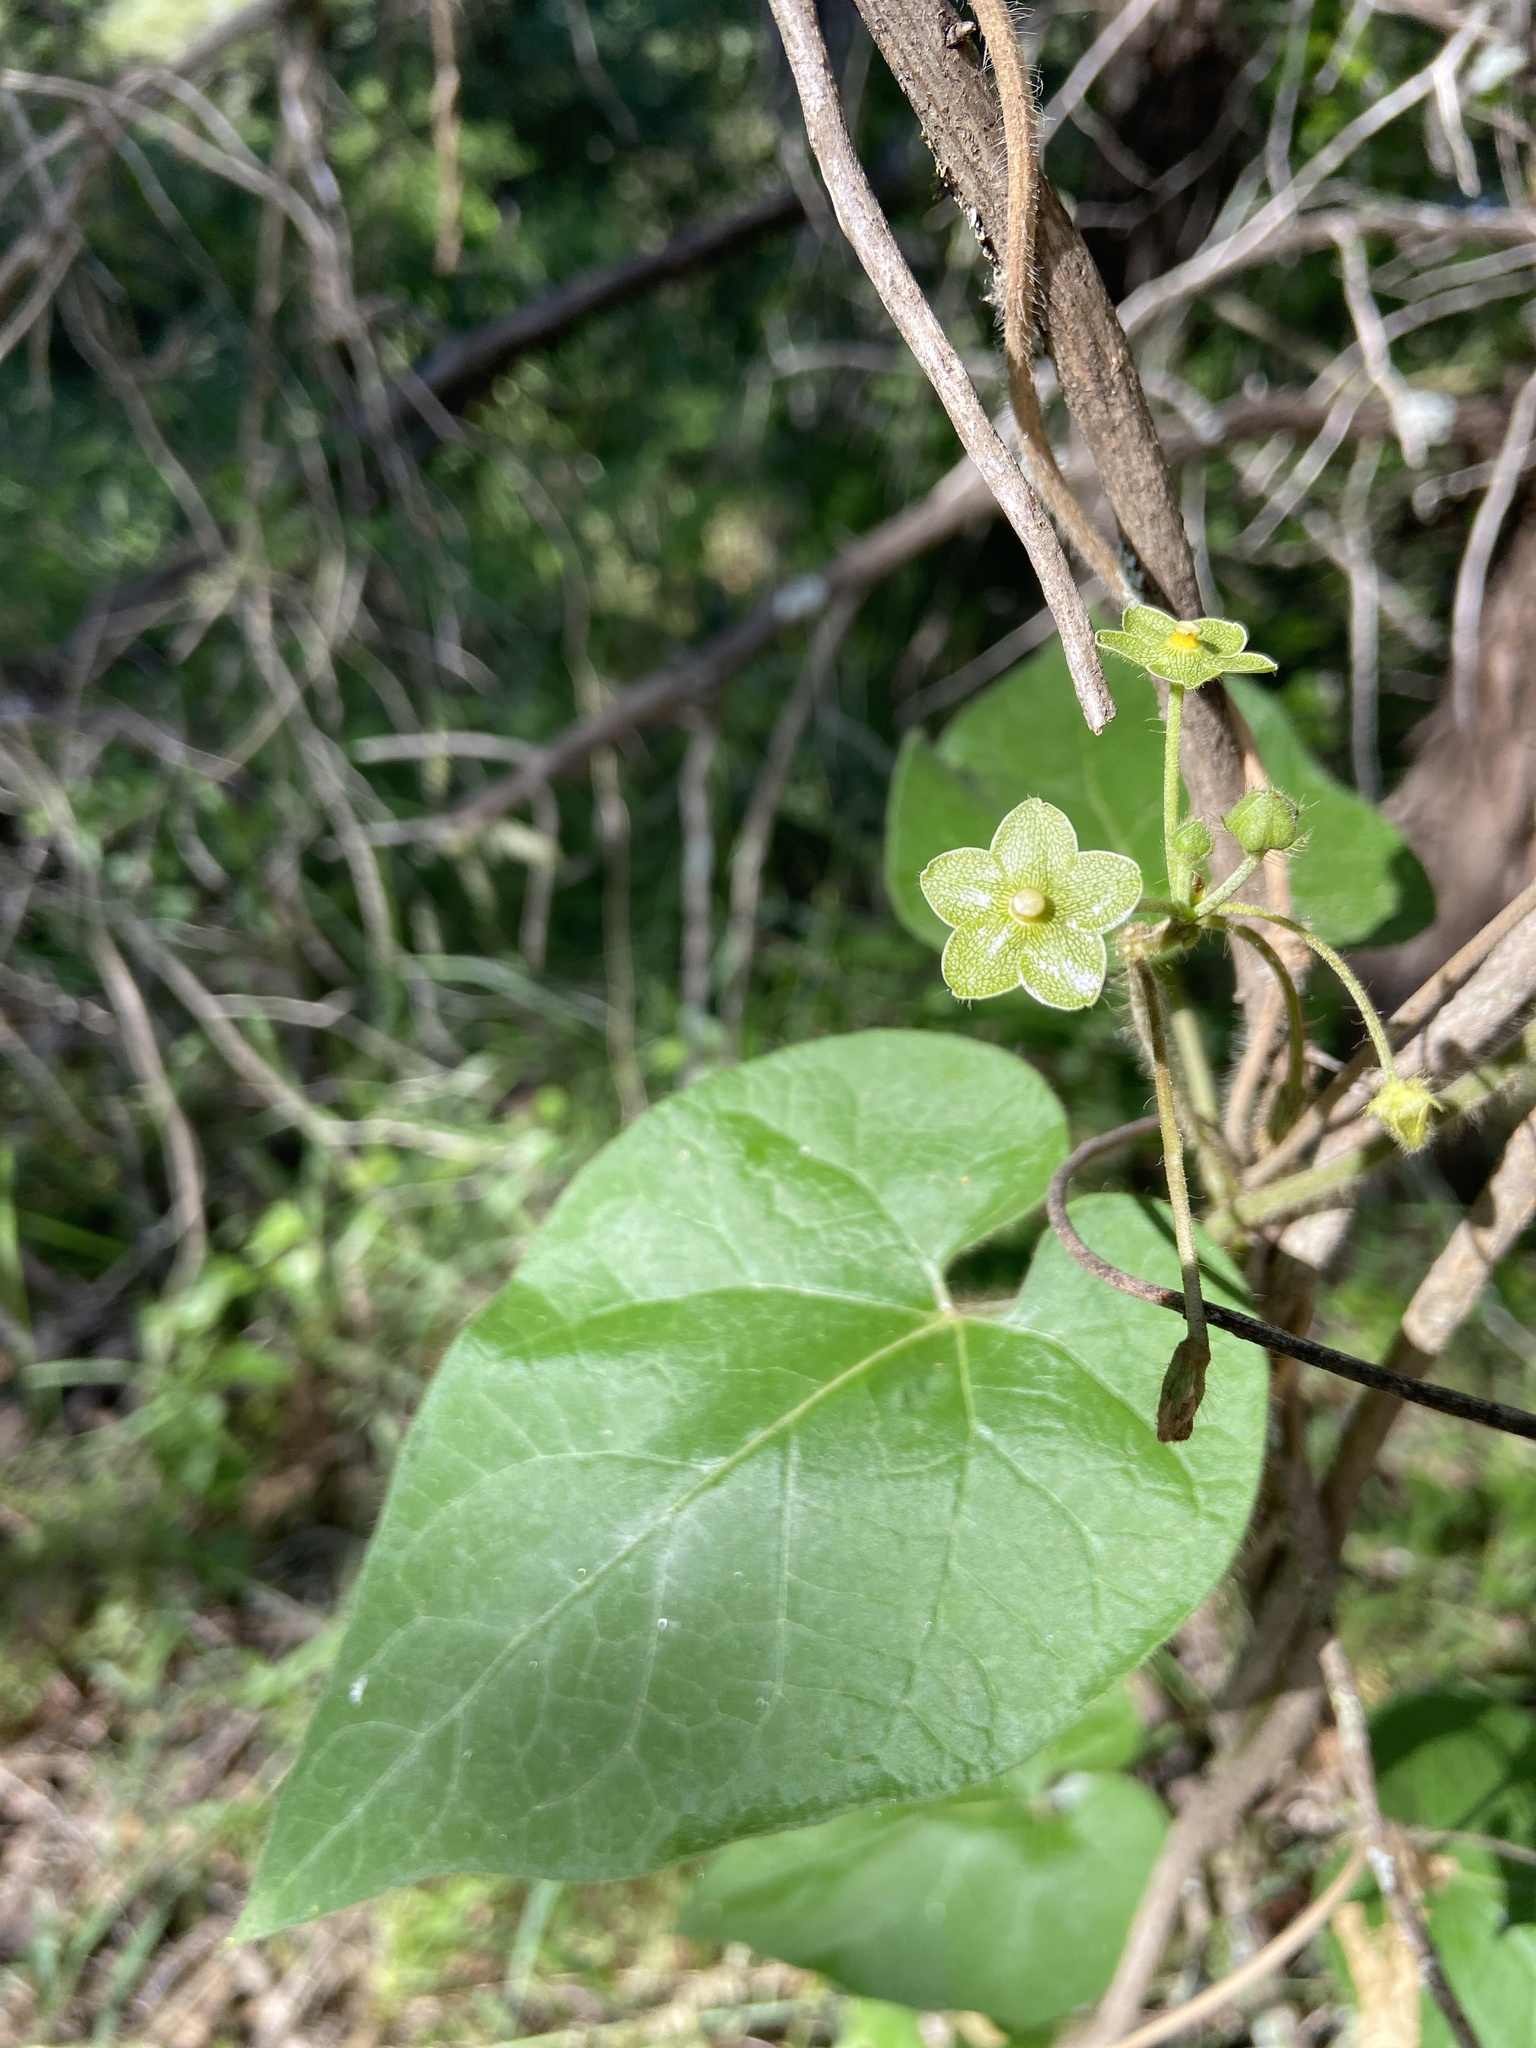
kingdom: Plantae
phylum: Tracheophyta
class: Magnoliopsida
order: Gentianales
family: Apocynaceae
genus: Dictyanthus
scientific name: Dictyanthus reticulatus
